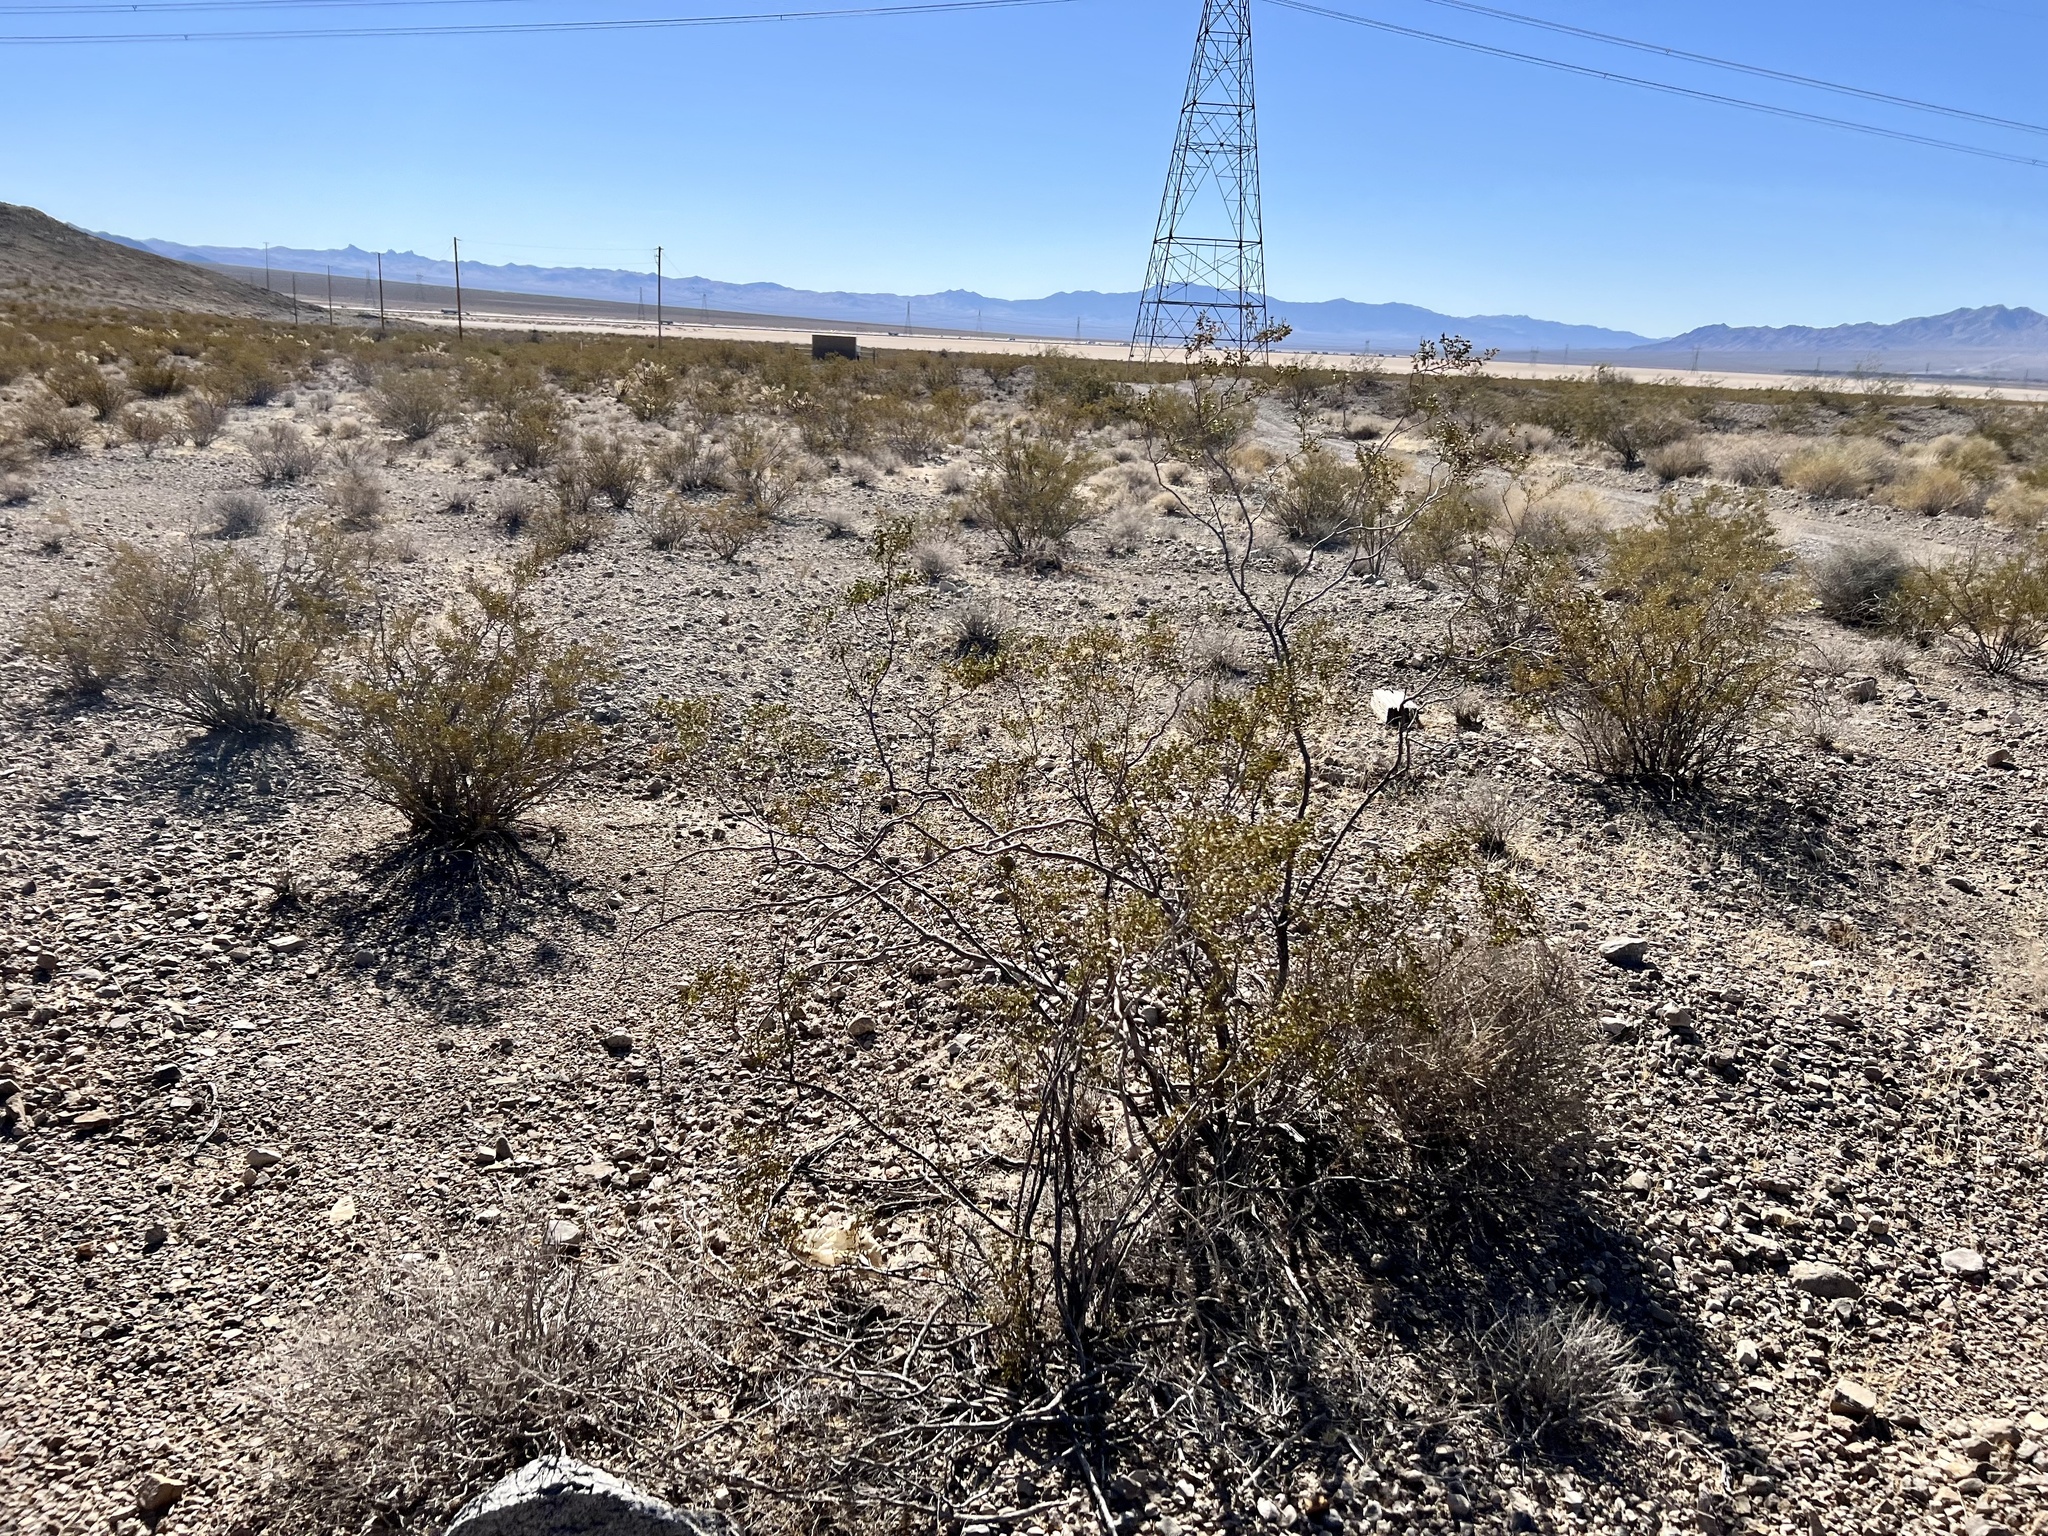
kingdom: Plantae
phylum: Tracheophyta
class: Magnoliopsida
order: Zygophyllales
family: Zygophyllaceae
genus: Larrea
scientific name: Larrea tridentata
